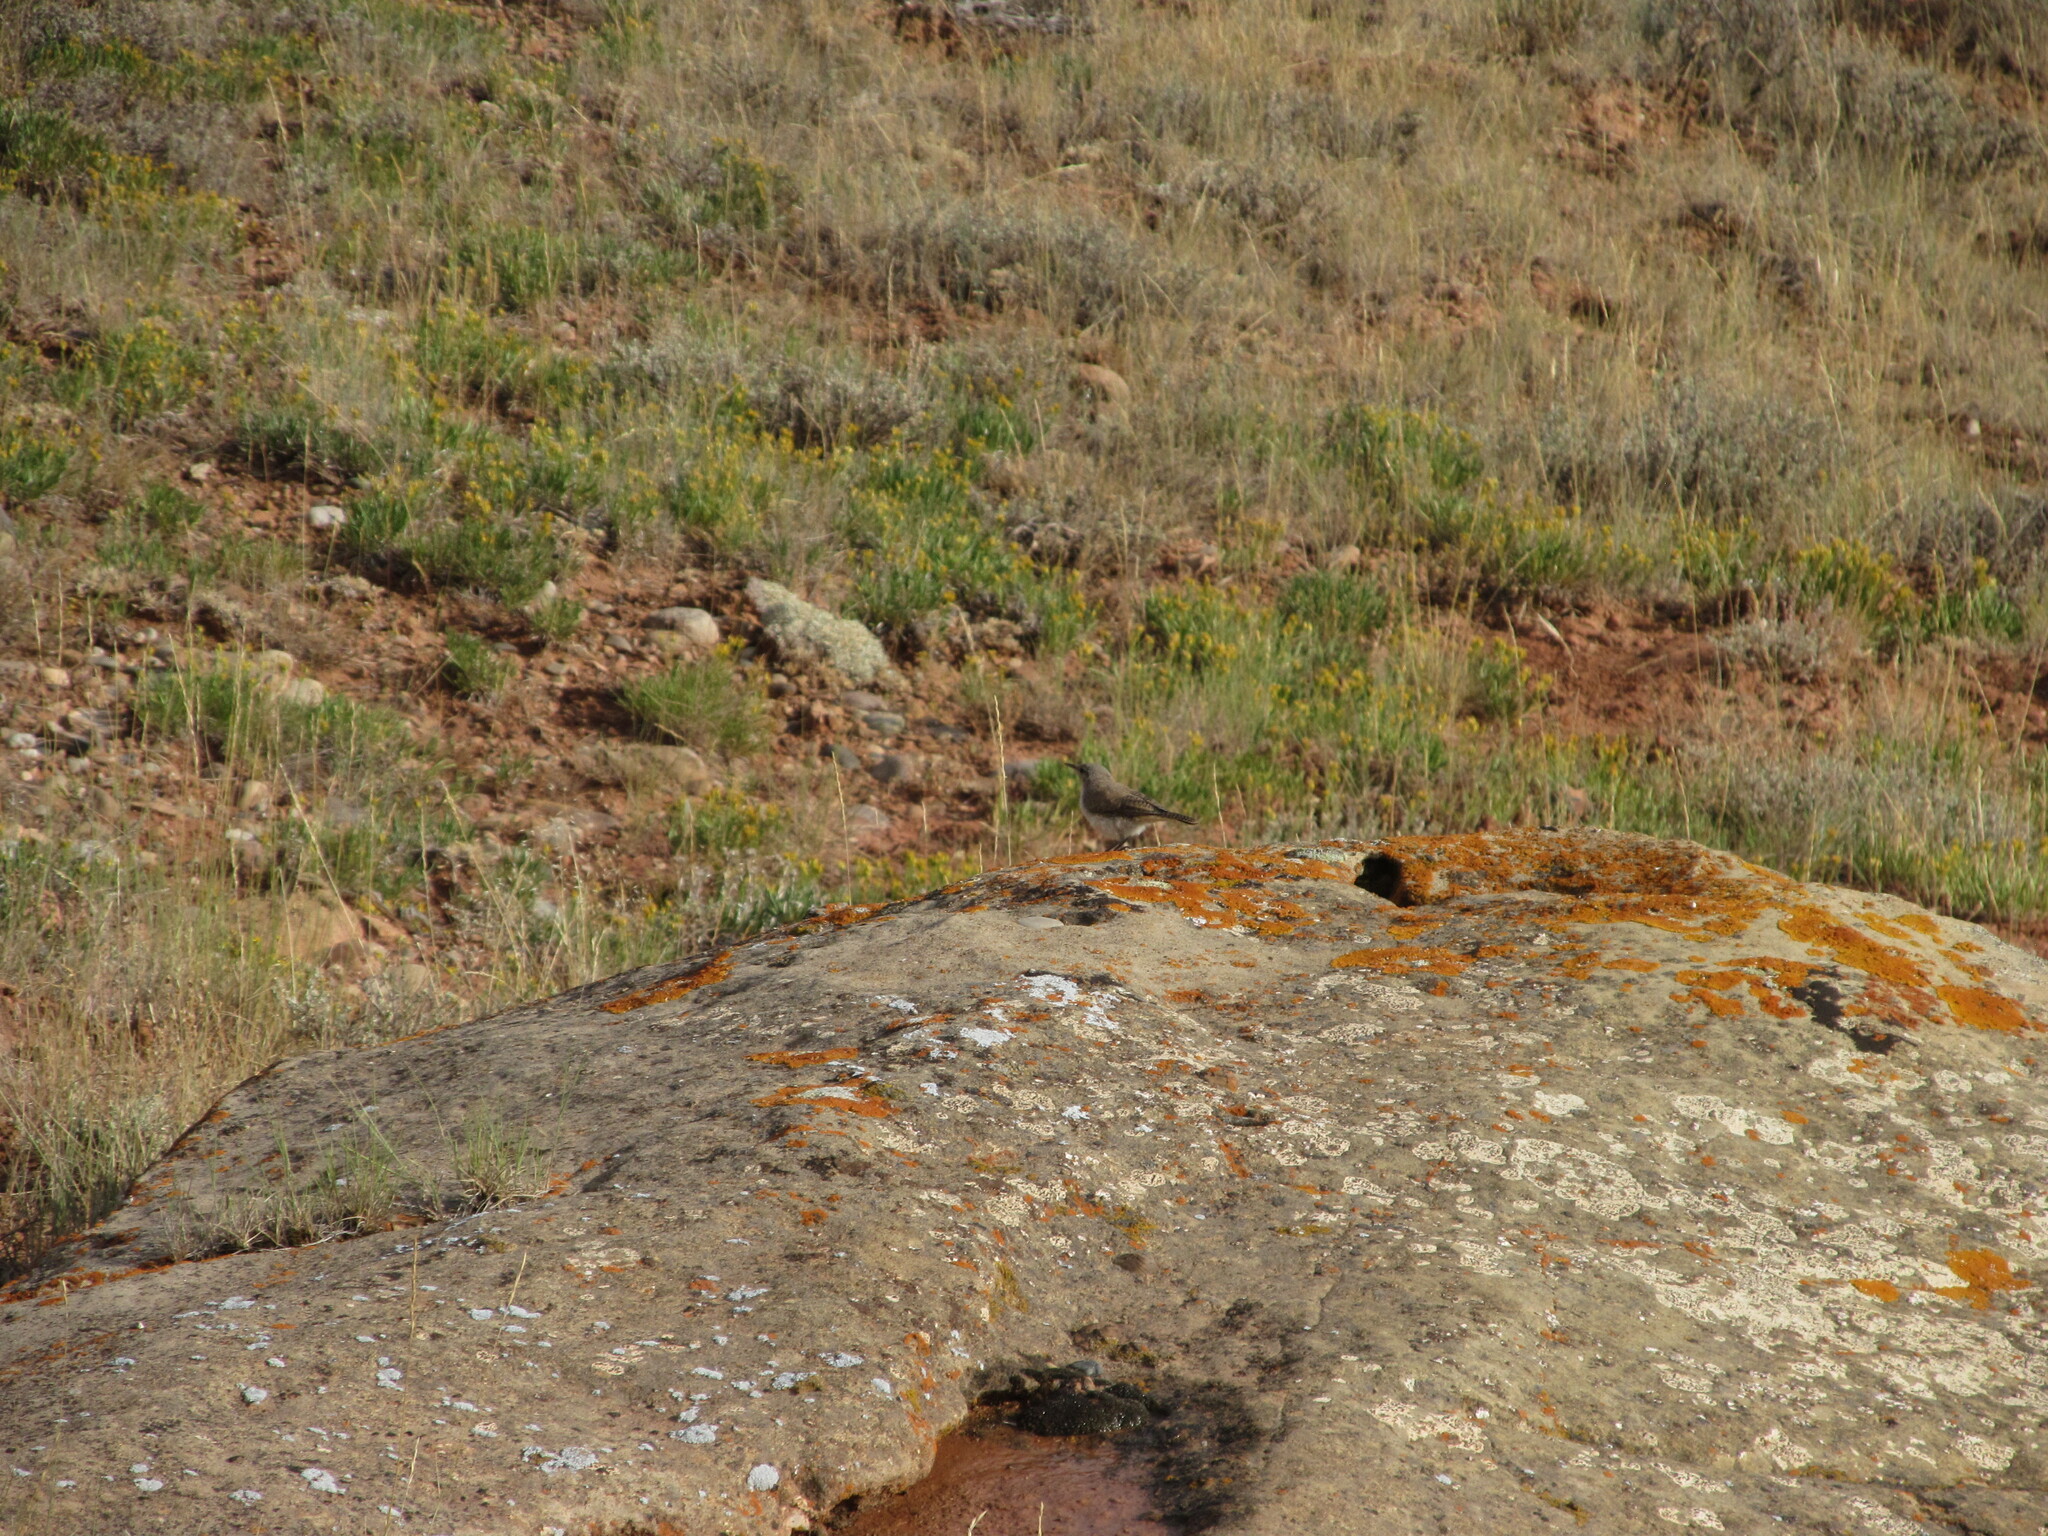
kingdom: Animalia
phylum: Chordata
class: Aves
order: Passeriformes
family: Troglodytidae
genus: Salpinctes
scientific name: Salpinctes obsoletus
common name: Rock wren
